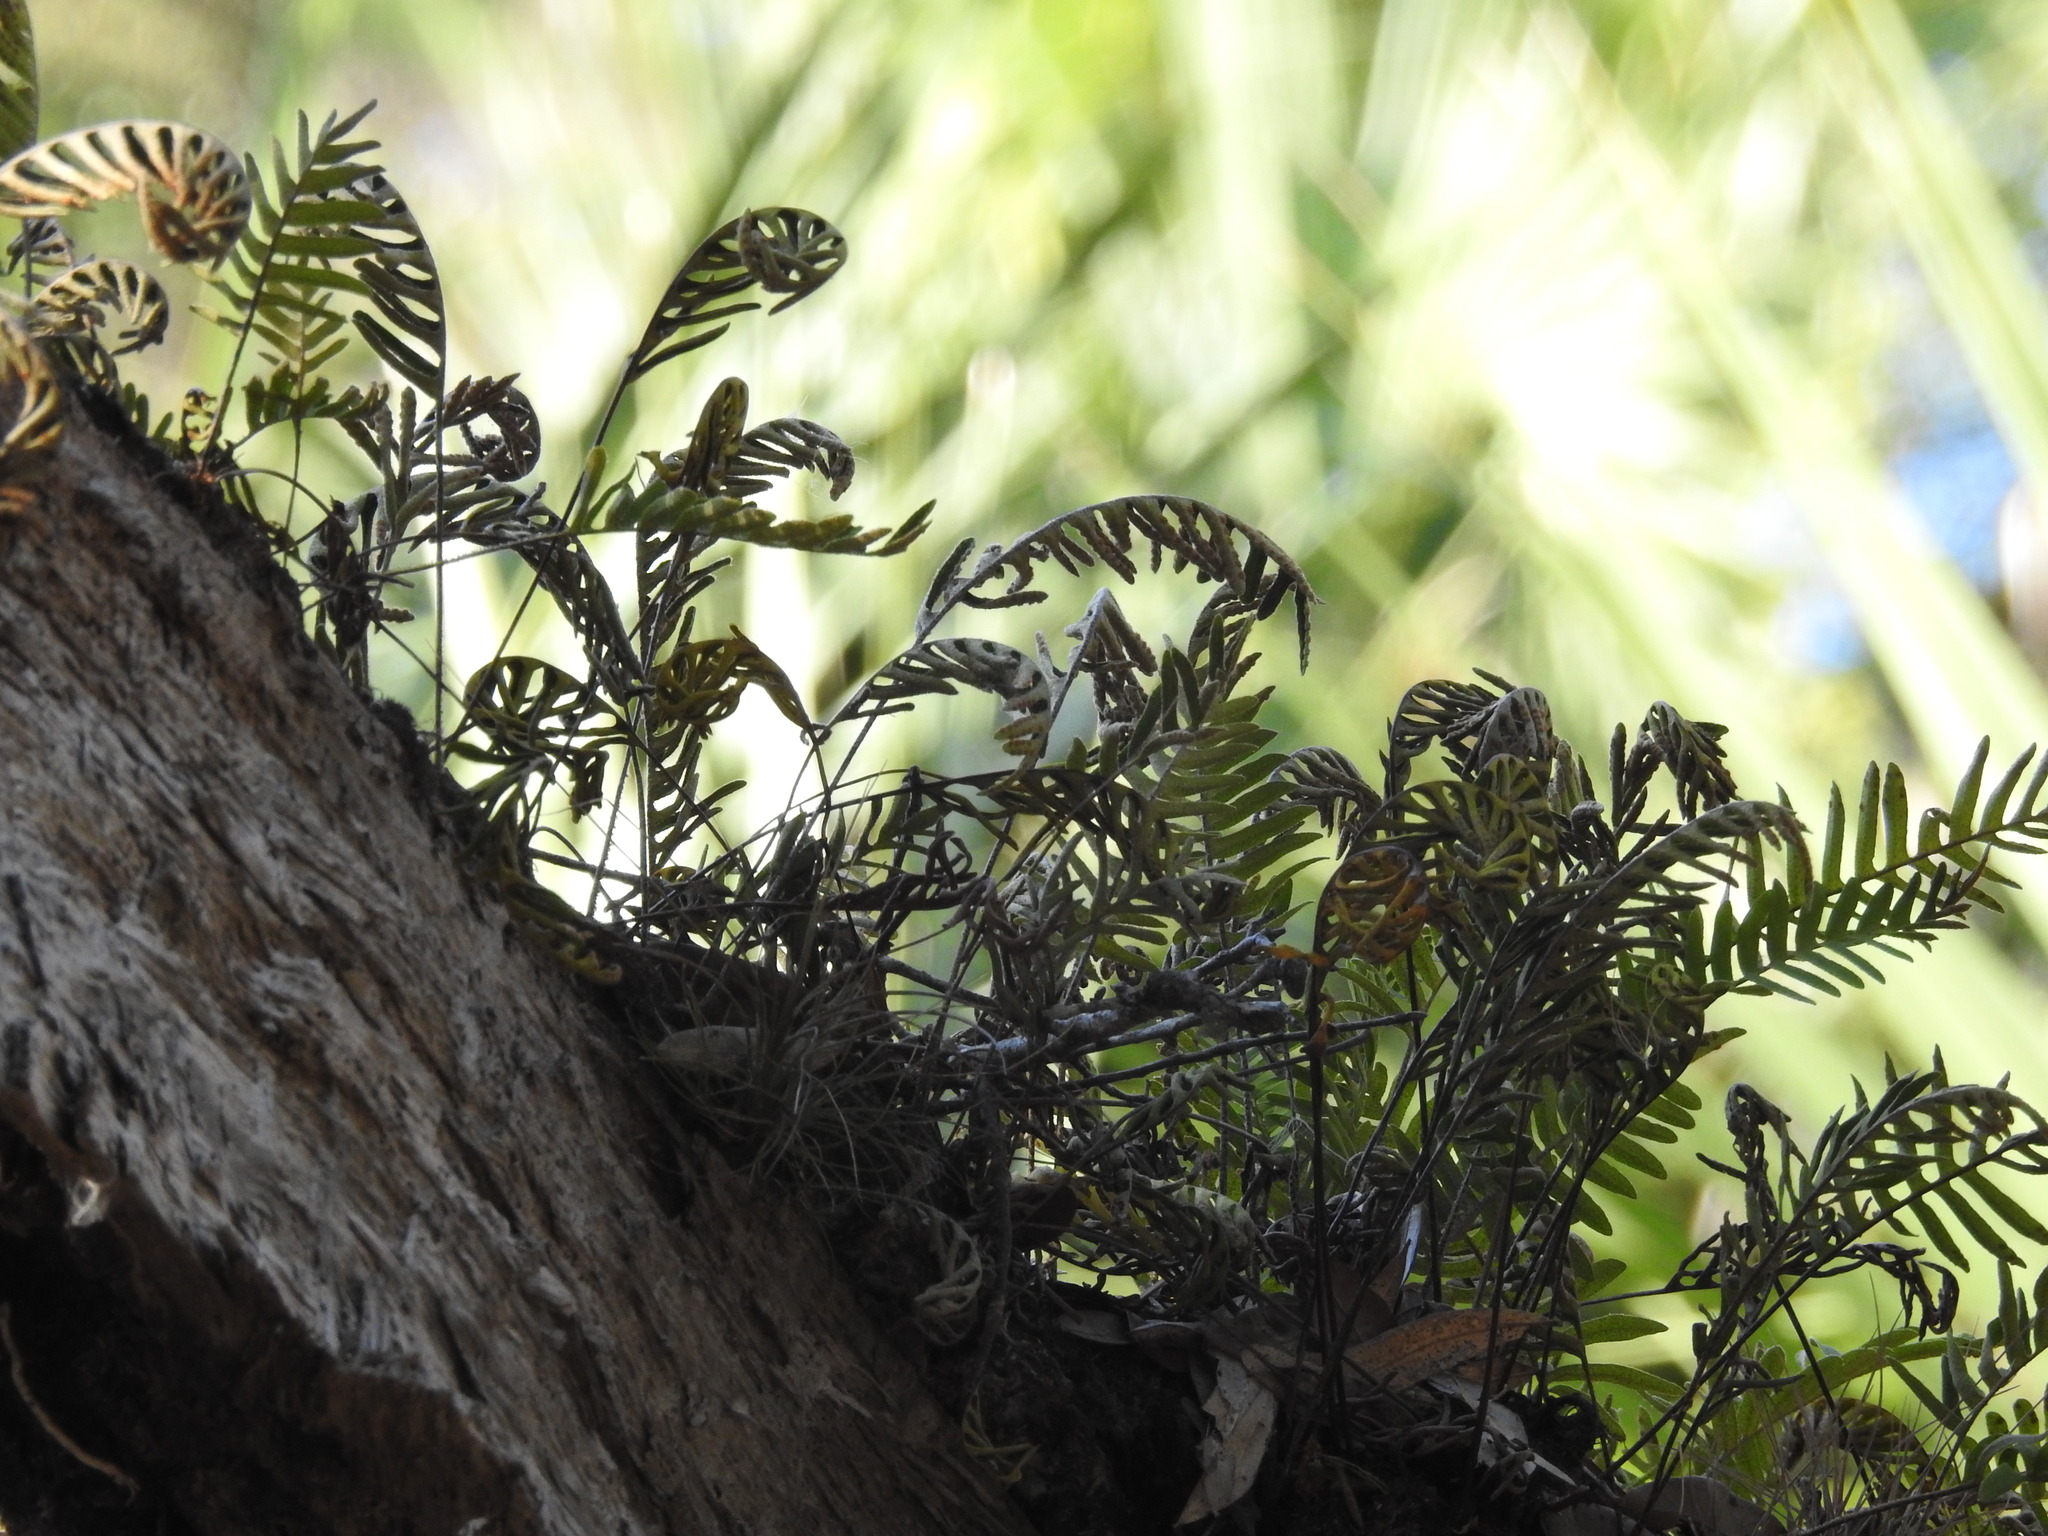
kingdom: Plantae
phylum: Tracheophyta
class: Polypodiopsida
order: Polypodiales
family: Polypodiaceae
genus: Pleopeltis
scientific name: Pleopeltis michauxiana
